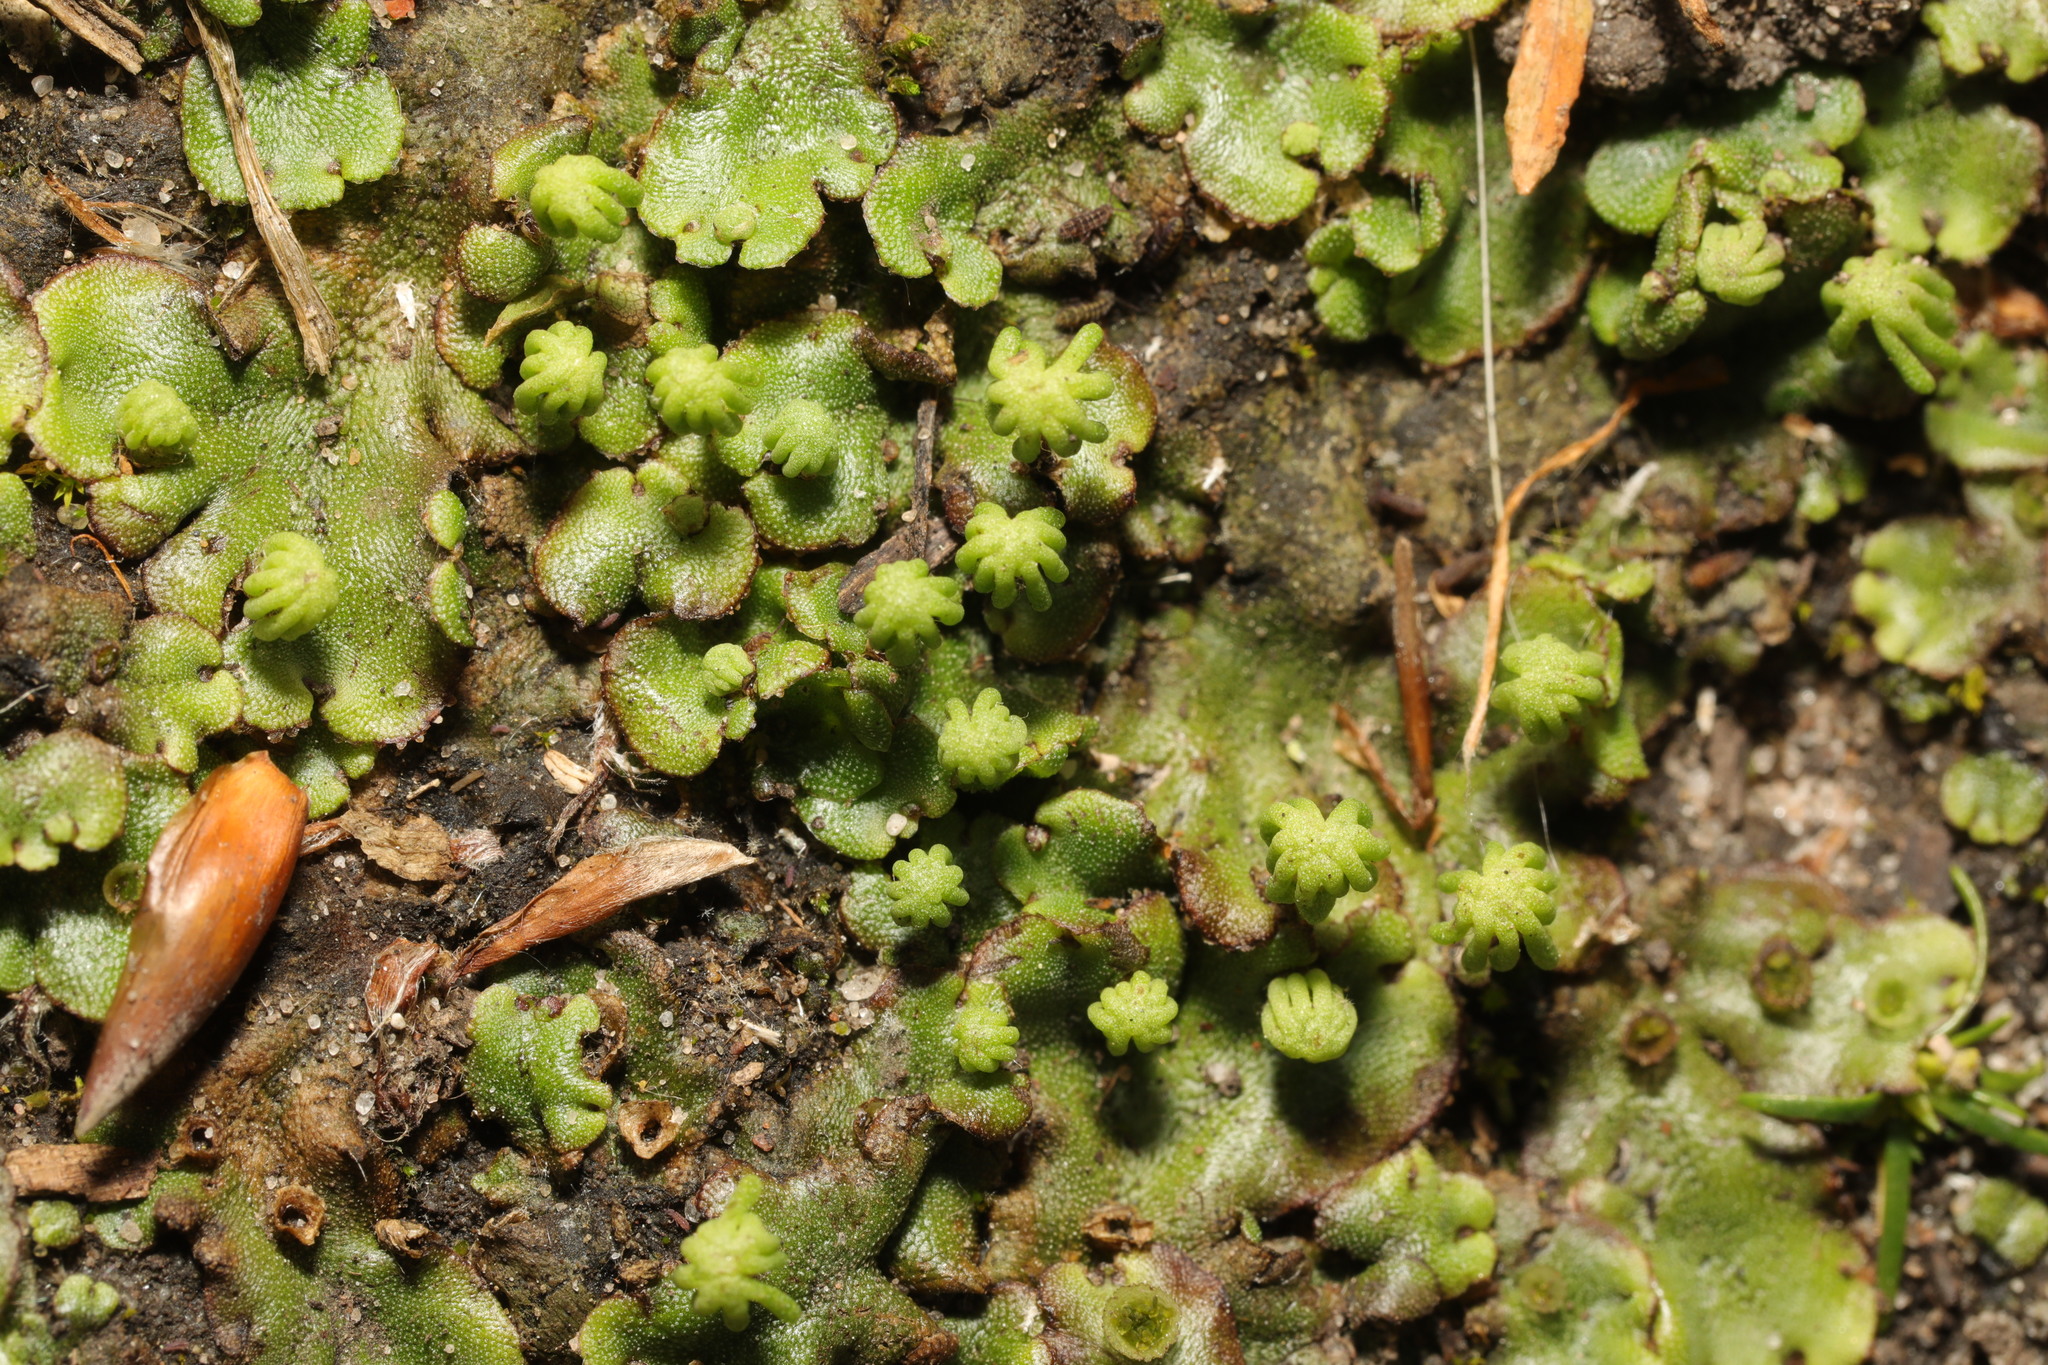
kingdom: Plantae
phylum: Marchantiophyta
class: Marchantiopsida
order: Marchantiales
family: Marchantiaceae
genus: Marchantia
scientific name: Marchantia polymorpha
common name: Common liverwort
